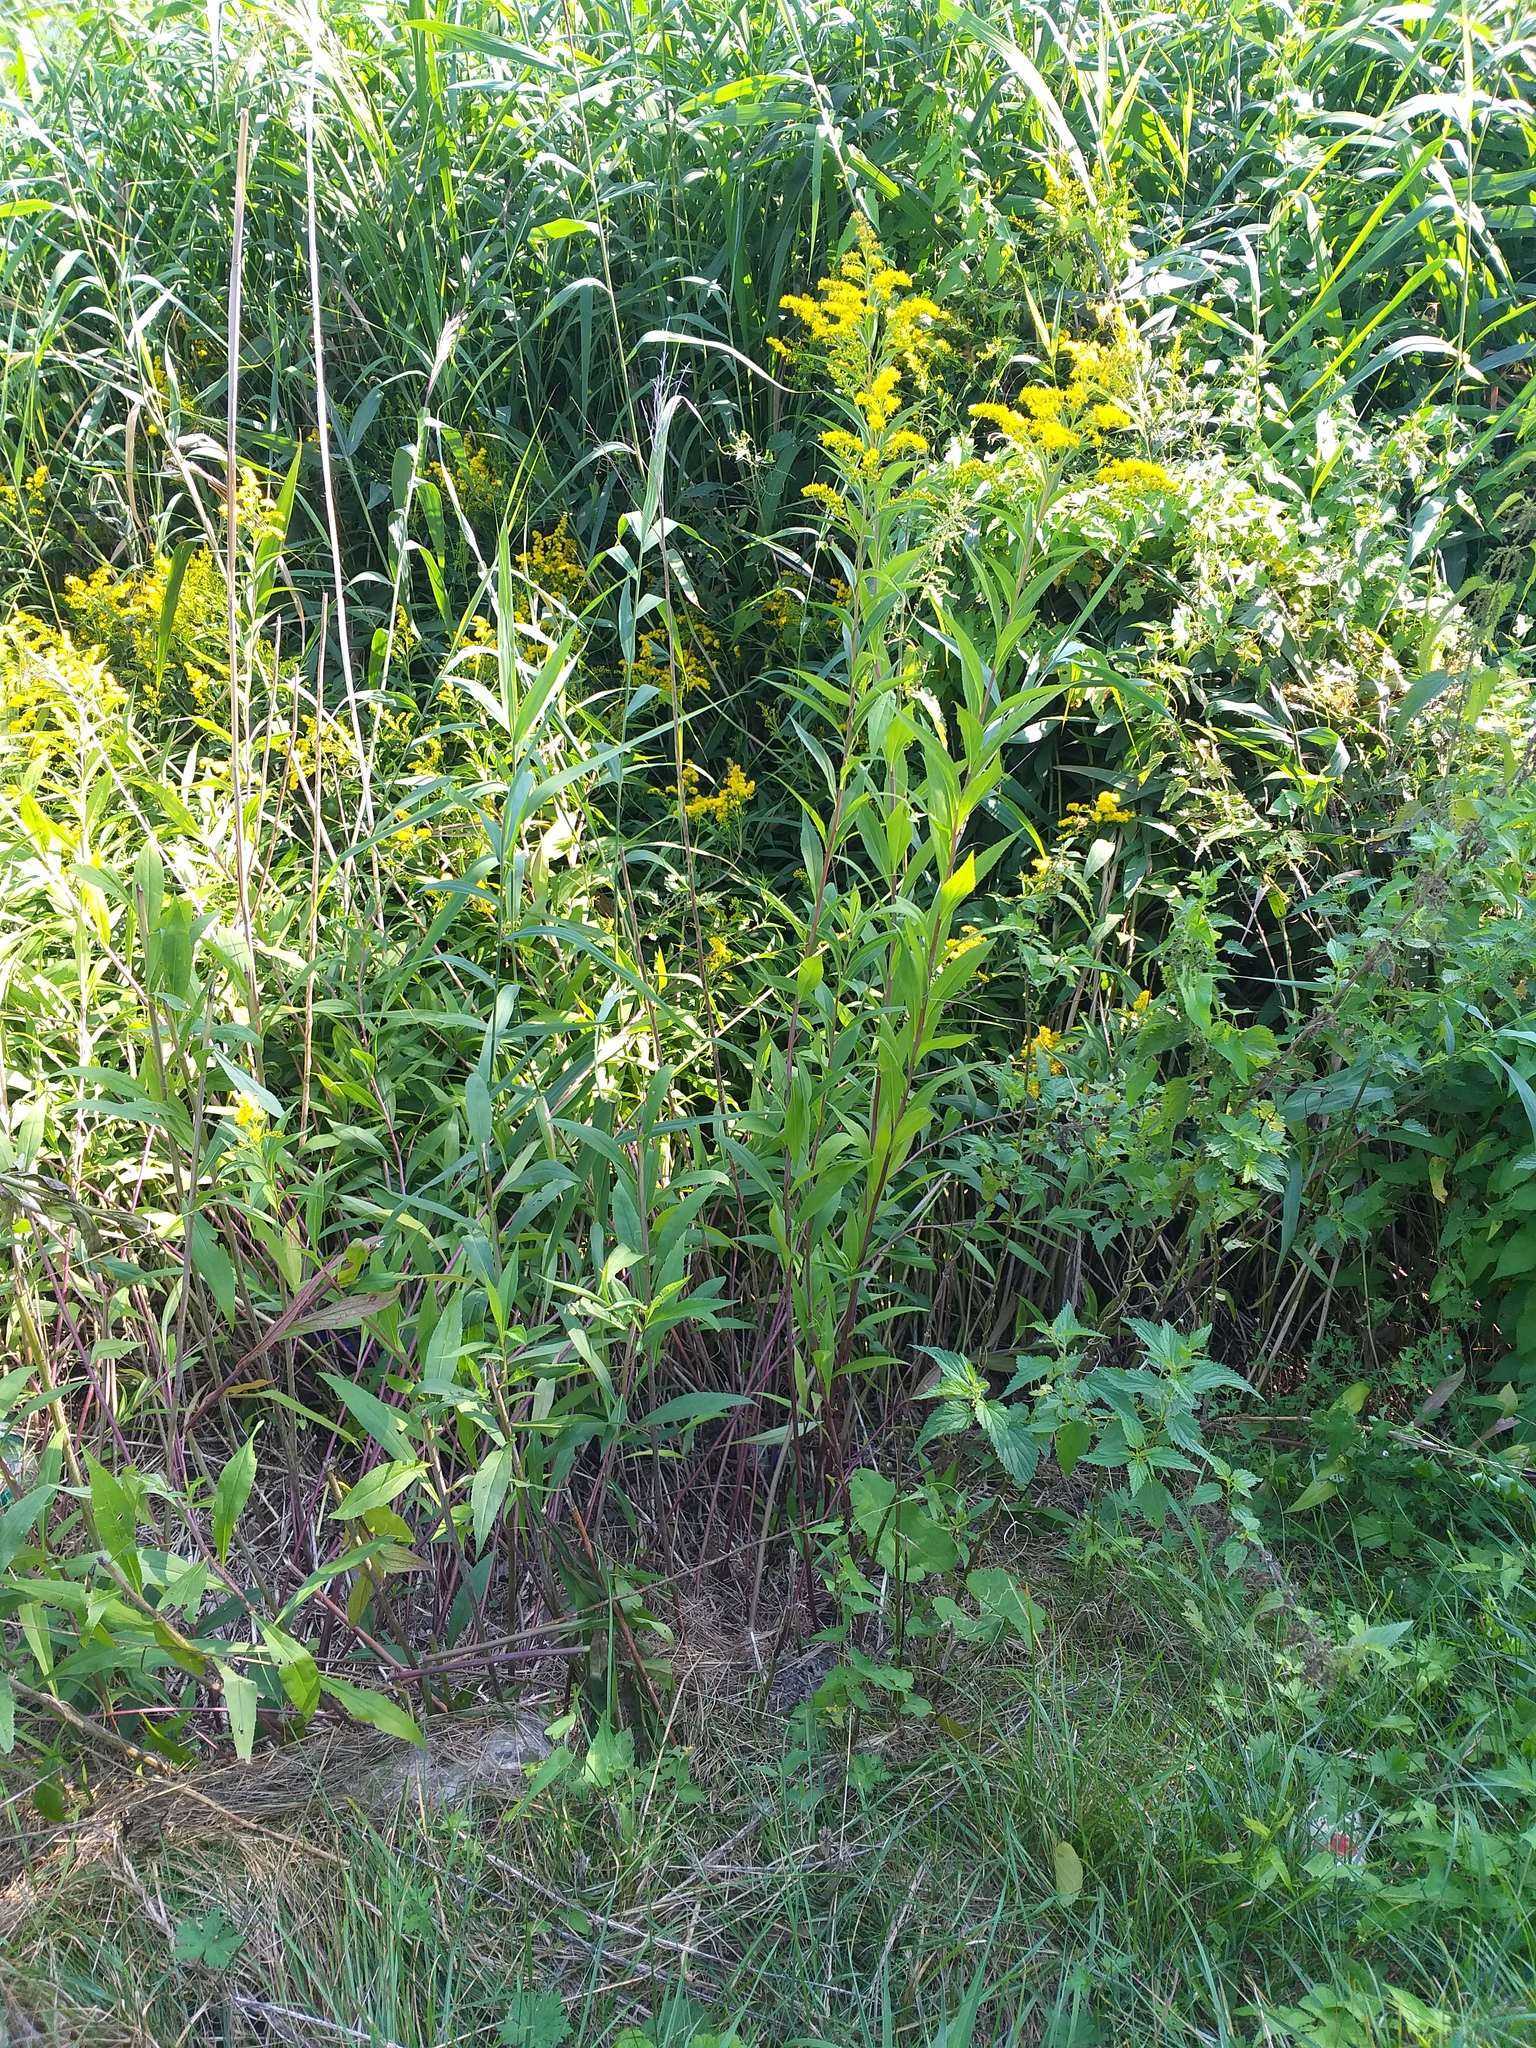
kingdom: Plantae
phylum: Tracheophyta
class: Magnoliopsida
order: Asterales
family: Asteraceae
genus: Solidago
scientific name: Solidago gigantea
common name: Giant goldenrod
